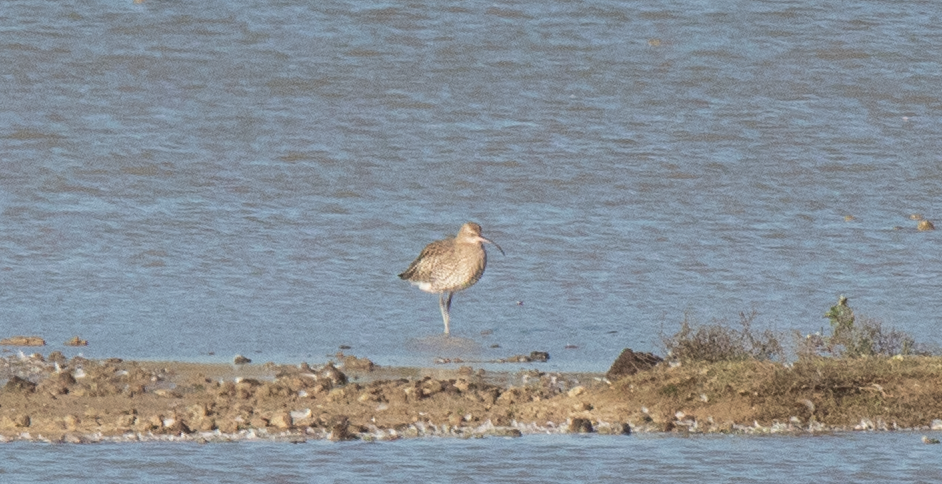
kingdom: Animalia
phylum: Chordata
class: Aves
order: Charadriiformes
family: Scolopacidae
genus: Numenius
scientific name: Numenius arquata
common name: Eurasian curlew
